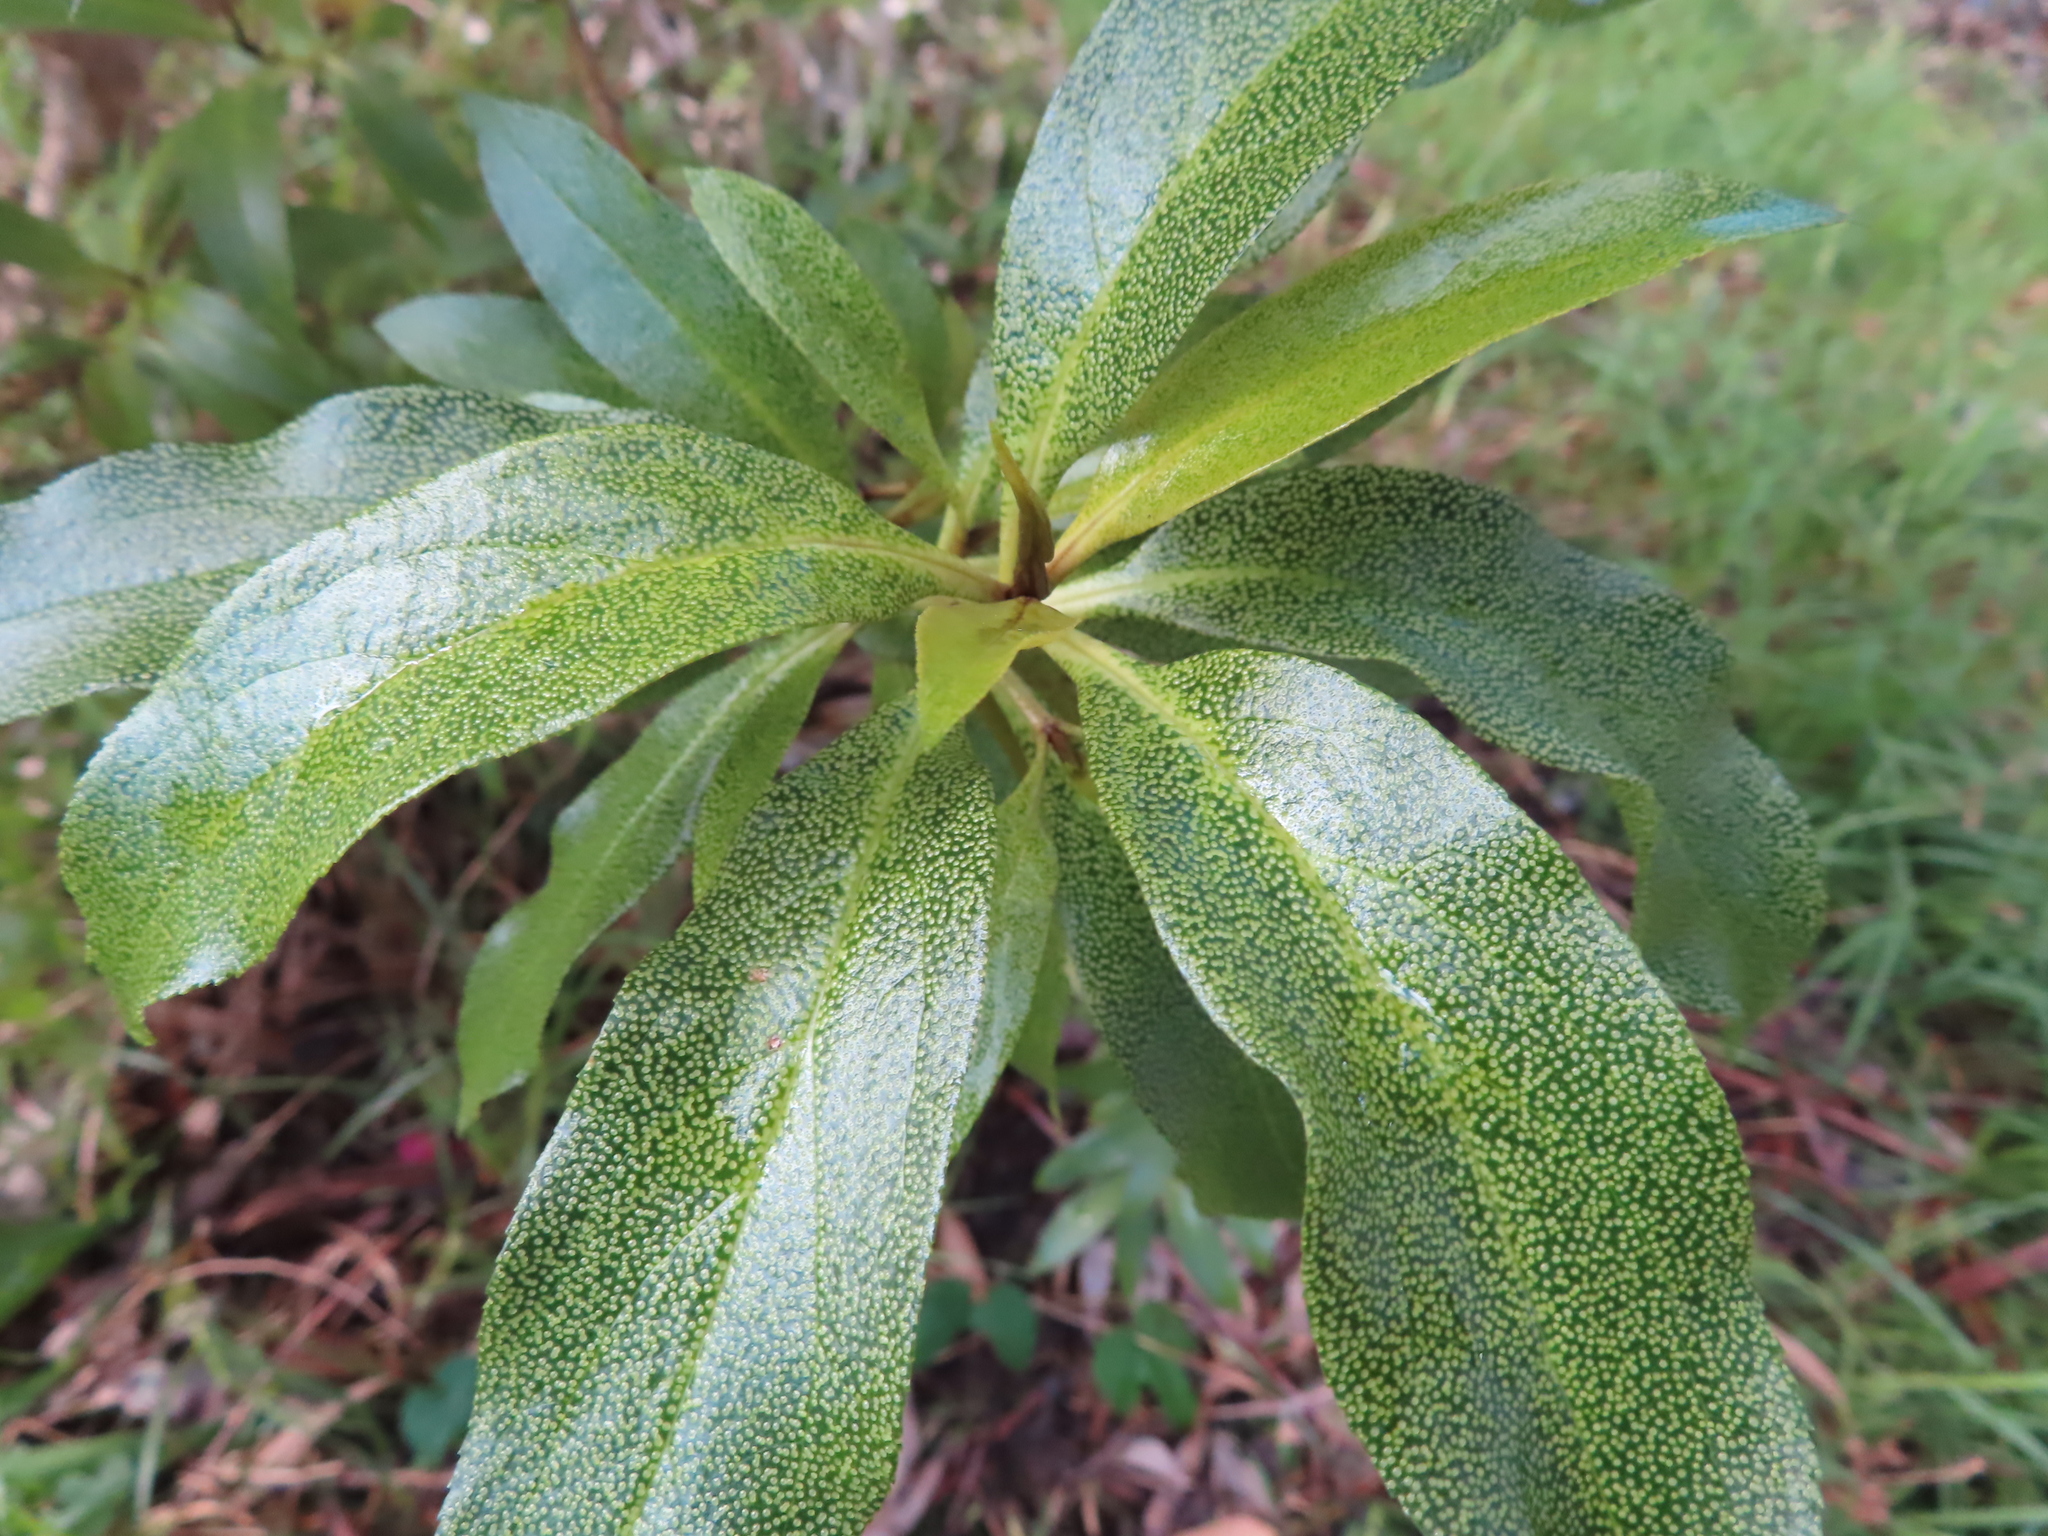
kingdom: Plantae
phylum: Tracheophyta
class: Magnoliopsida
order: Lamiales
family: Scrophulariaceae
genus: Myoporum
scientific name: Myoporum laetum
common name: Ngaio tree
